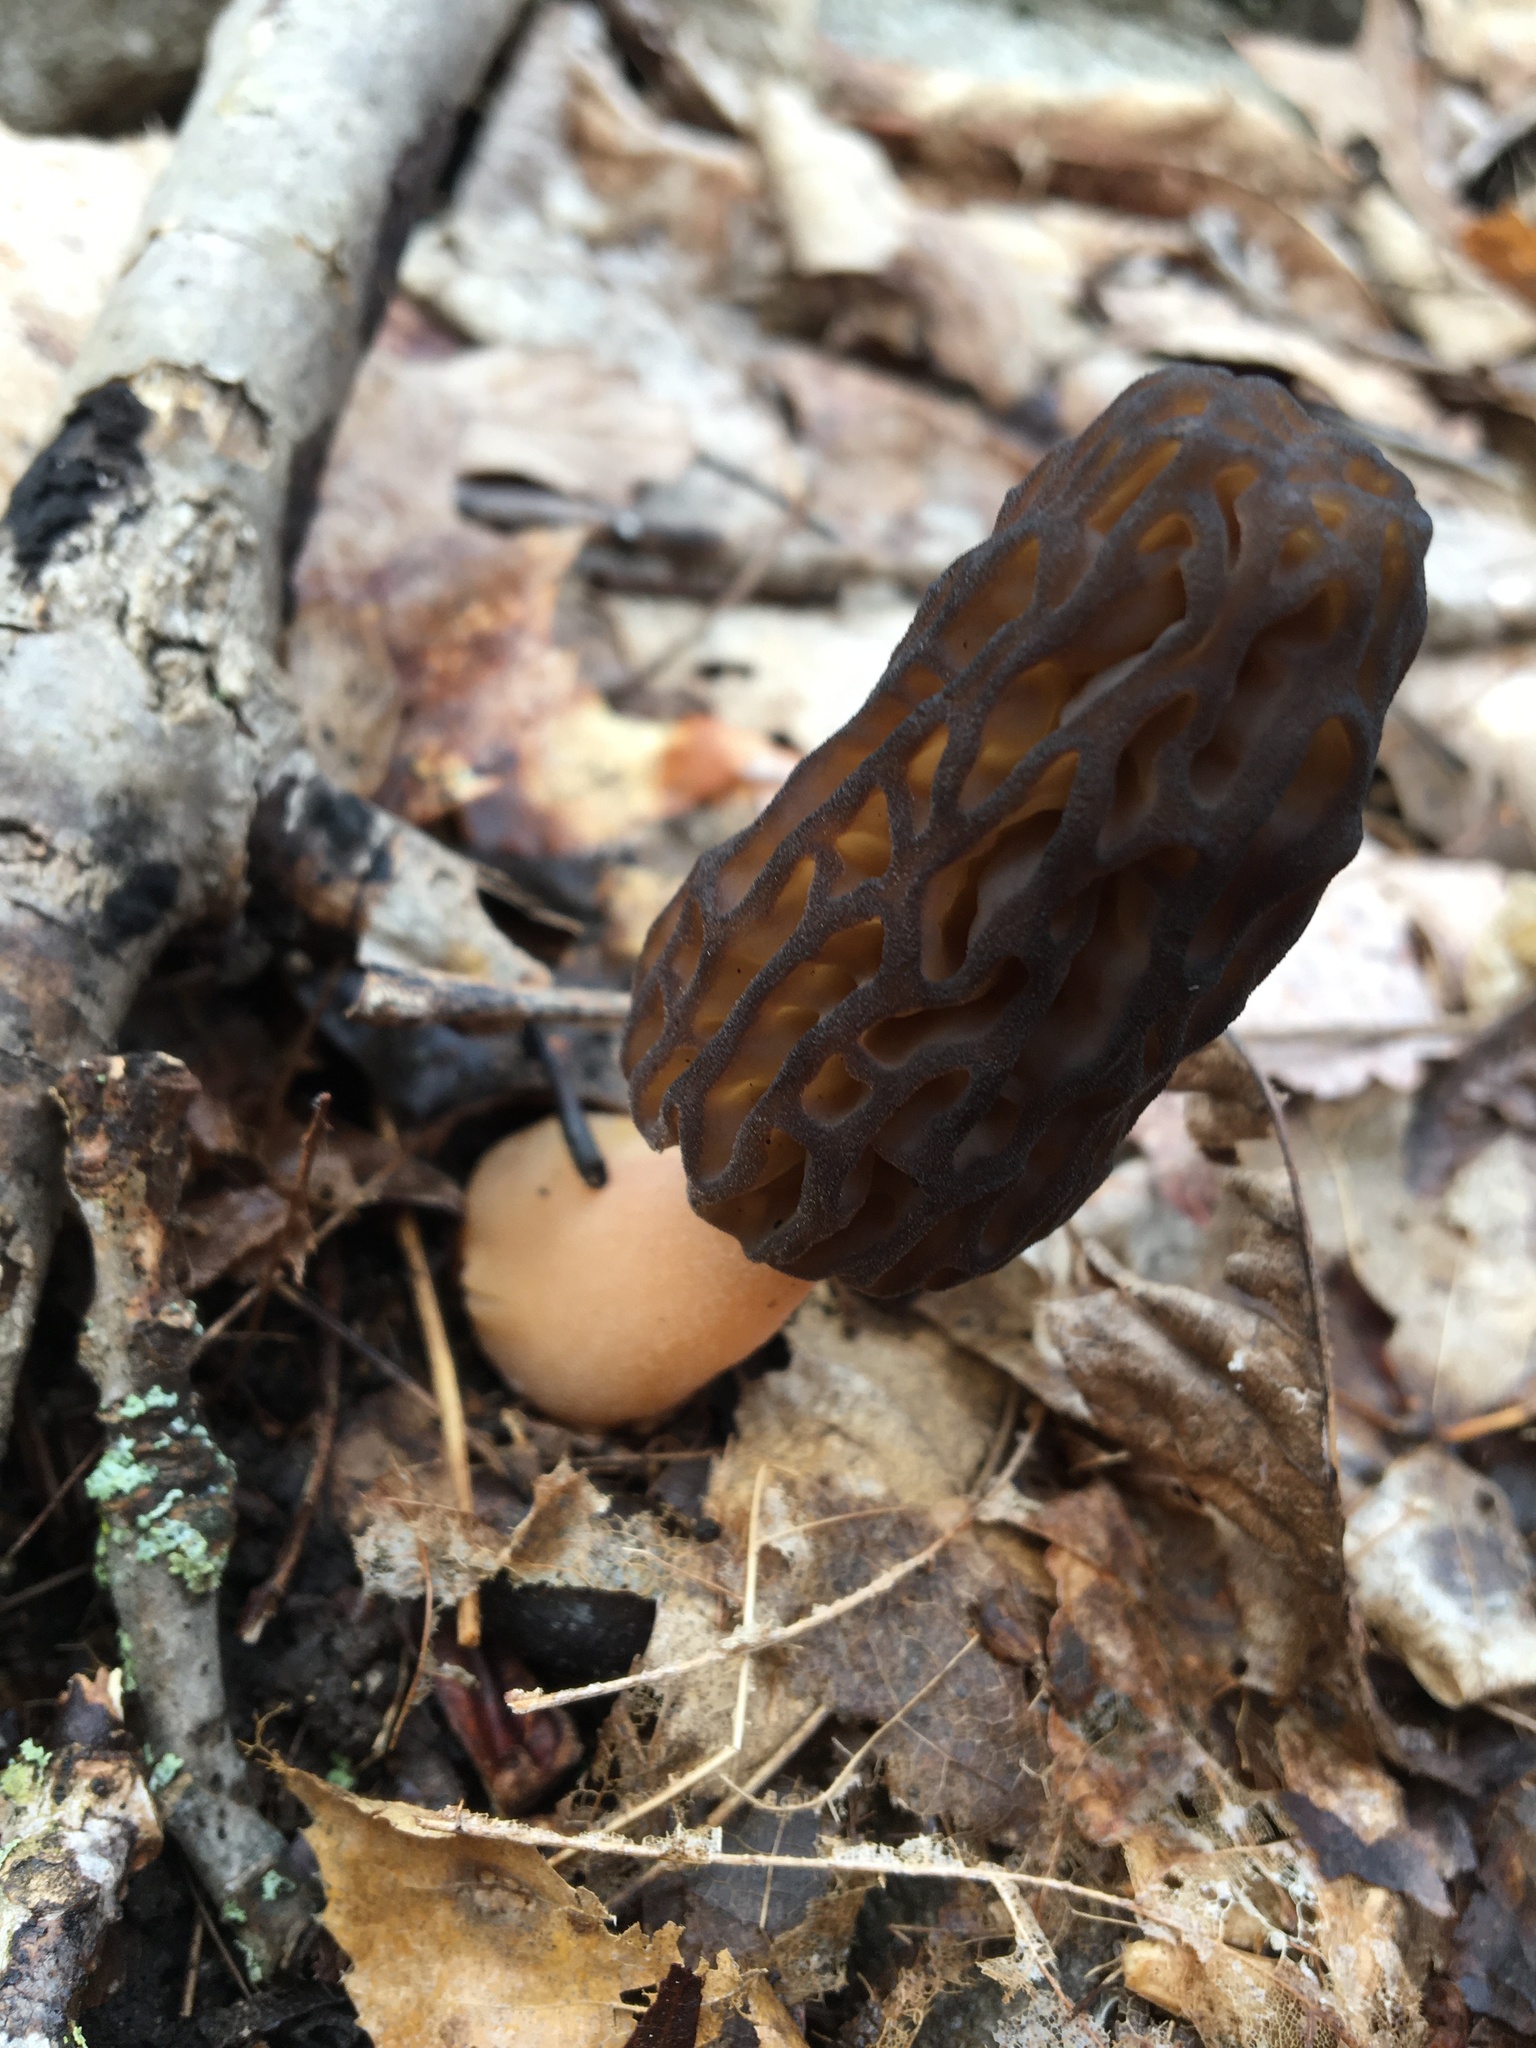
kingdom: Fungi
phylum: Ascomycota
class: Pezizomycetes
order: Pezizales
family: Morchellaceae
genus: Morchella
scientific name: Morchella angusticeps
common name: Black morel
